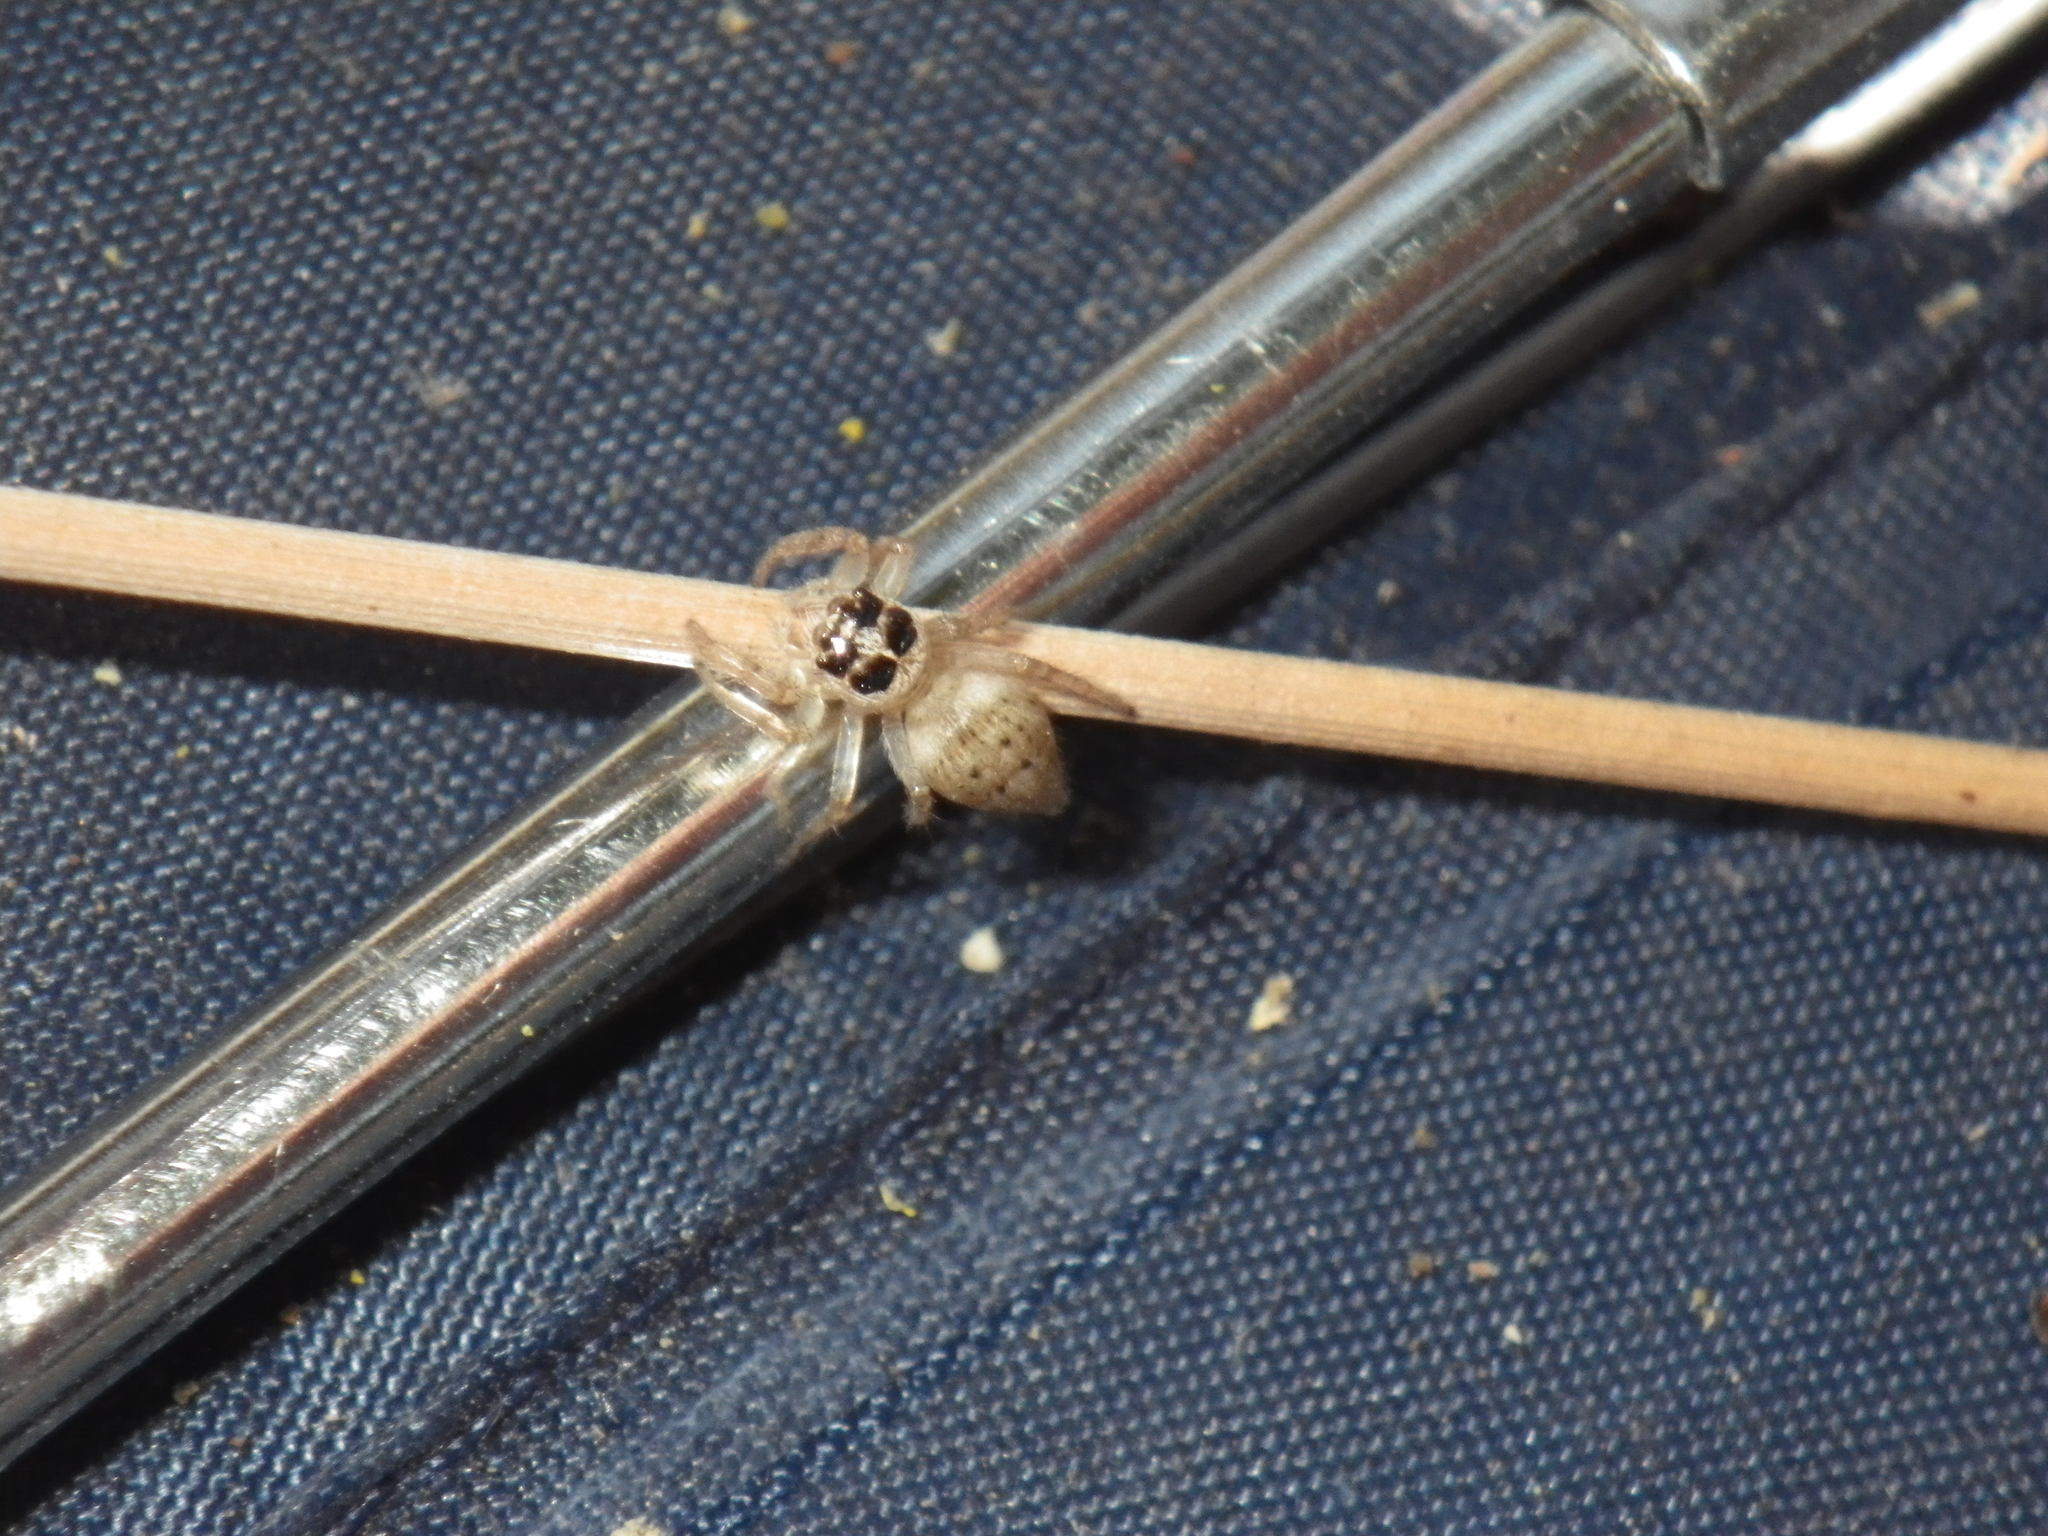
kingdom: Animalia
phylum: Arthropoda
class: Arachnida
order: Araneae
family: Salticidae
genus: Colonus
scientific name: Colonus hesperus
